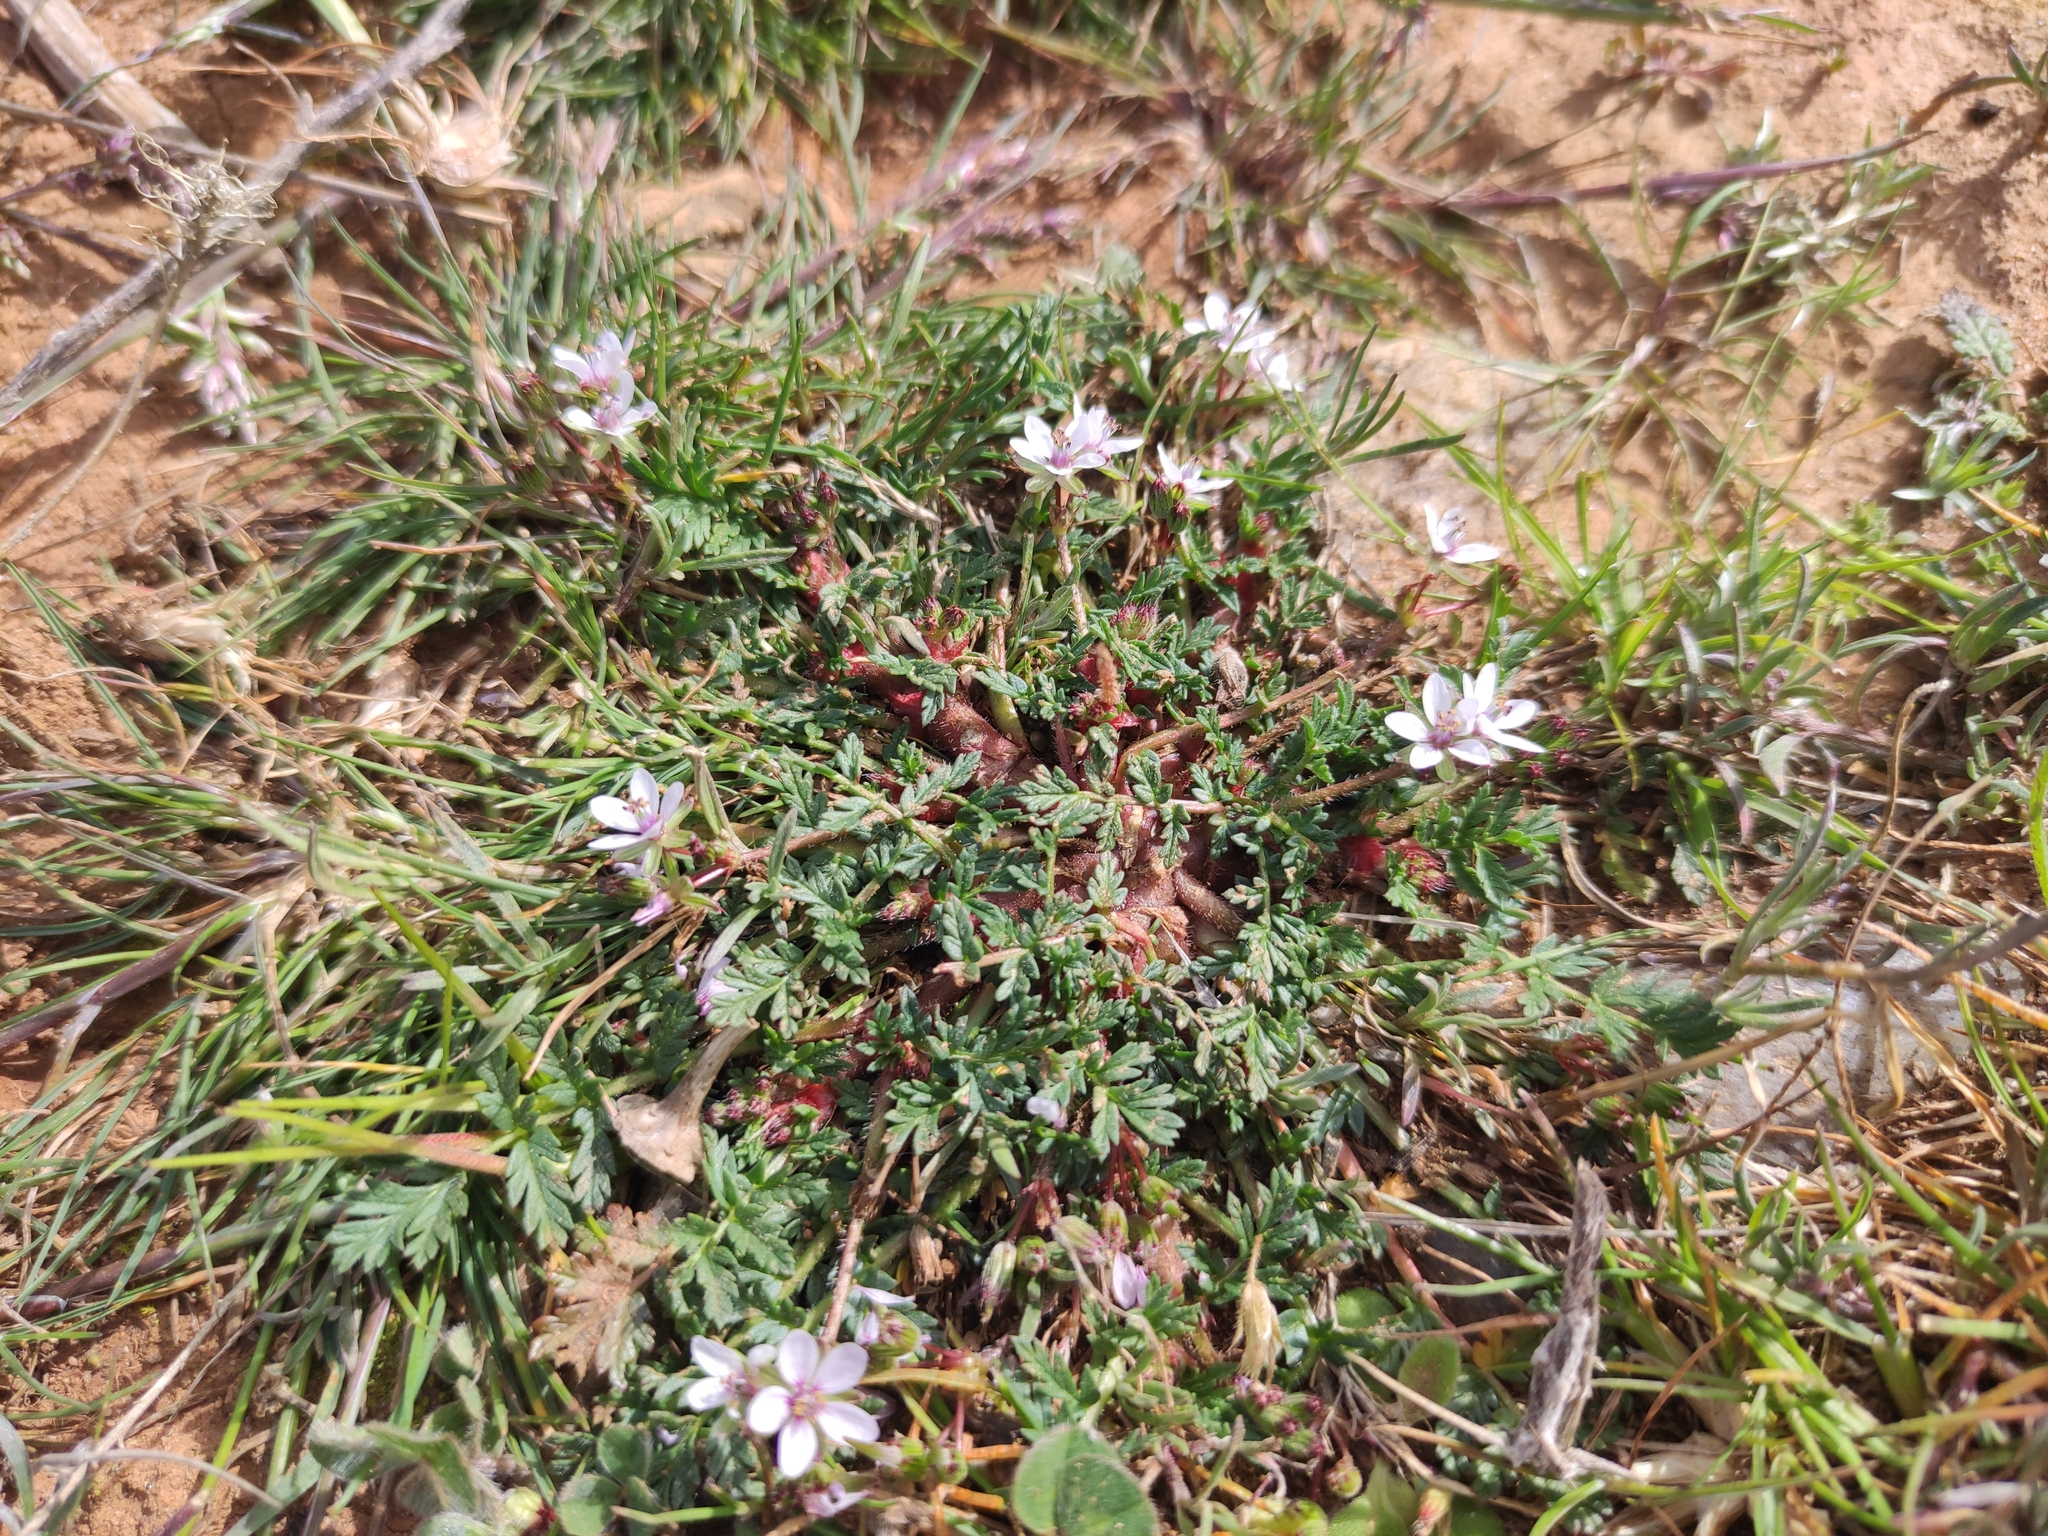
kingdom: Plantae
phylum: Tracheophyta
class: Magnoliopsida
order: Geraniales
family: Geraniaceae
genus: Erodium
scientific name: Erodium cicutarium
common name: Common stork's-bill
